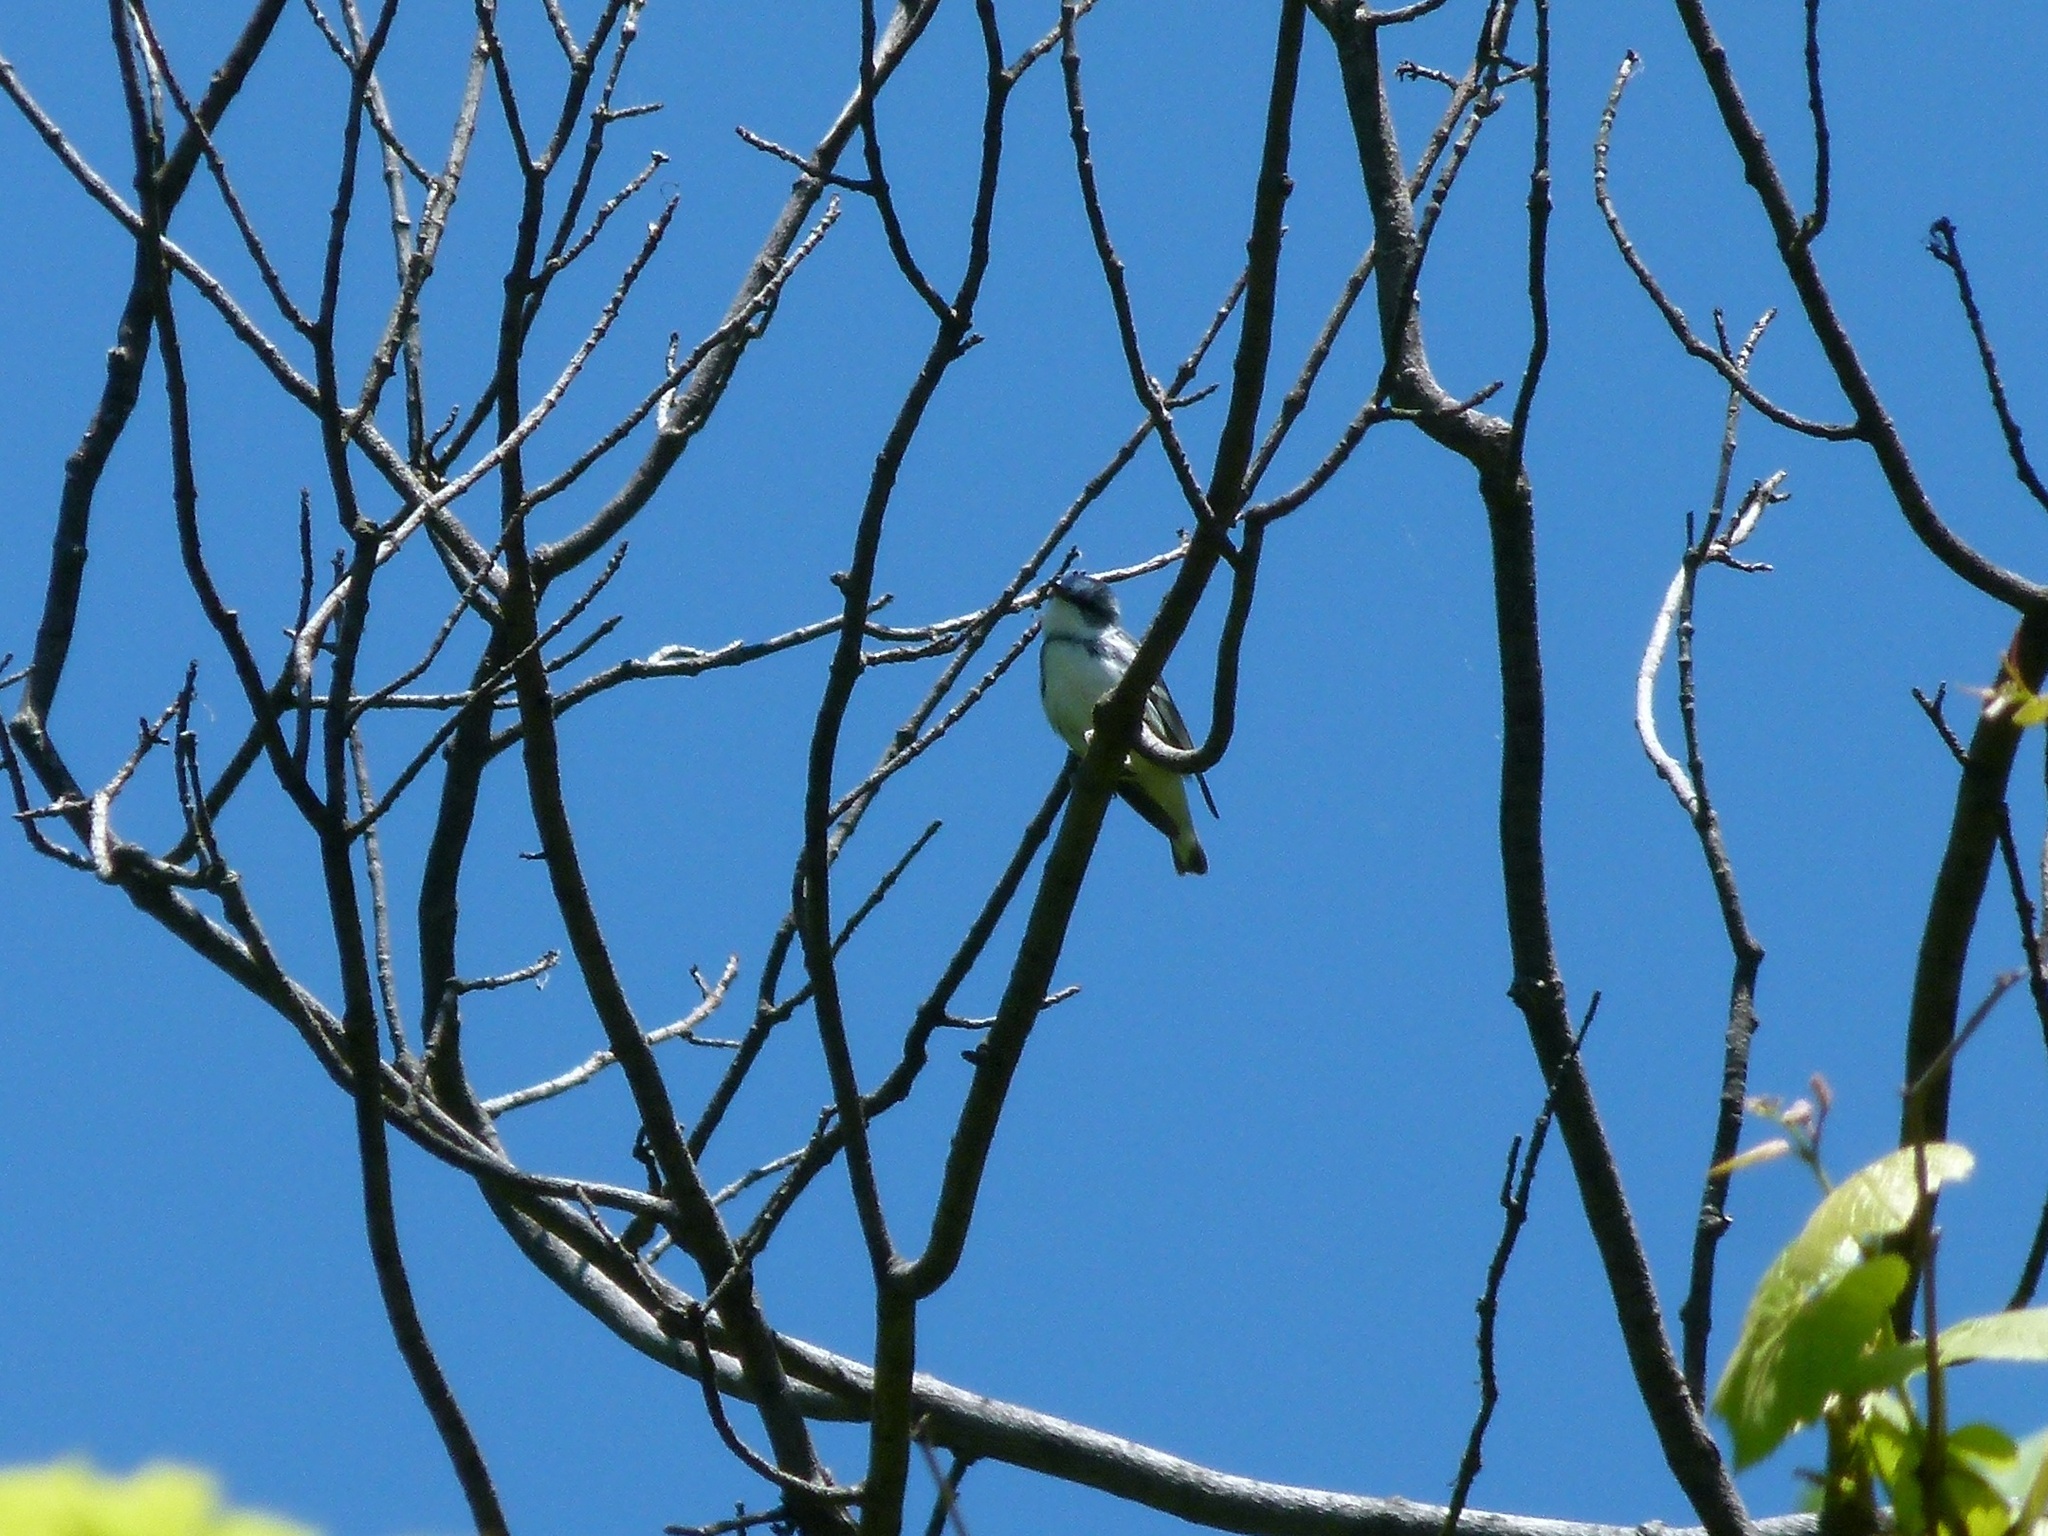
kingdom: Animalia
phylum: Chordata
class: Aves
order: Passeriformes
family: Parulidae
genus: Setophaga
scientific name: Setophaga cerulea
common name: Cerulean warbler
